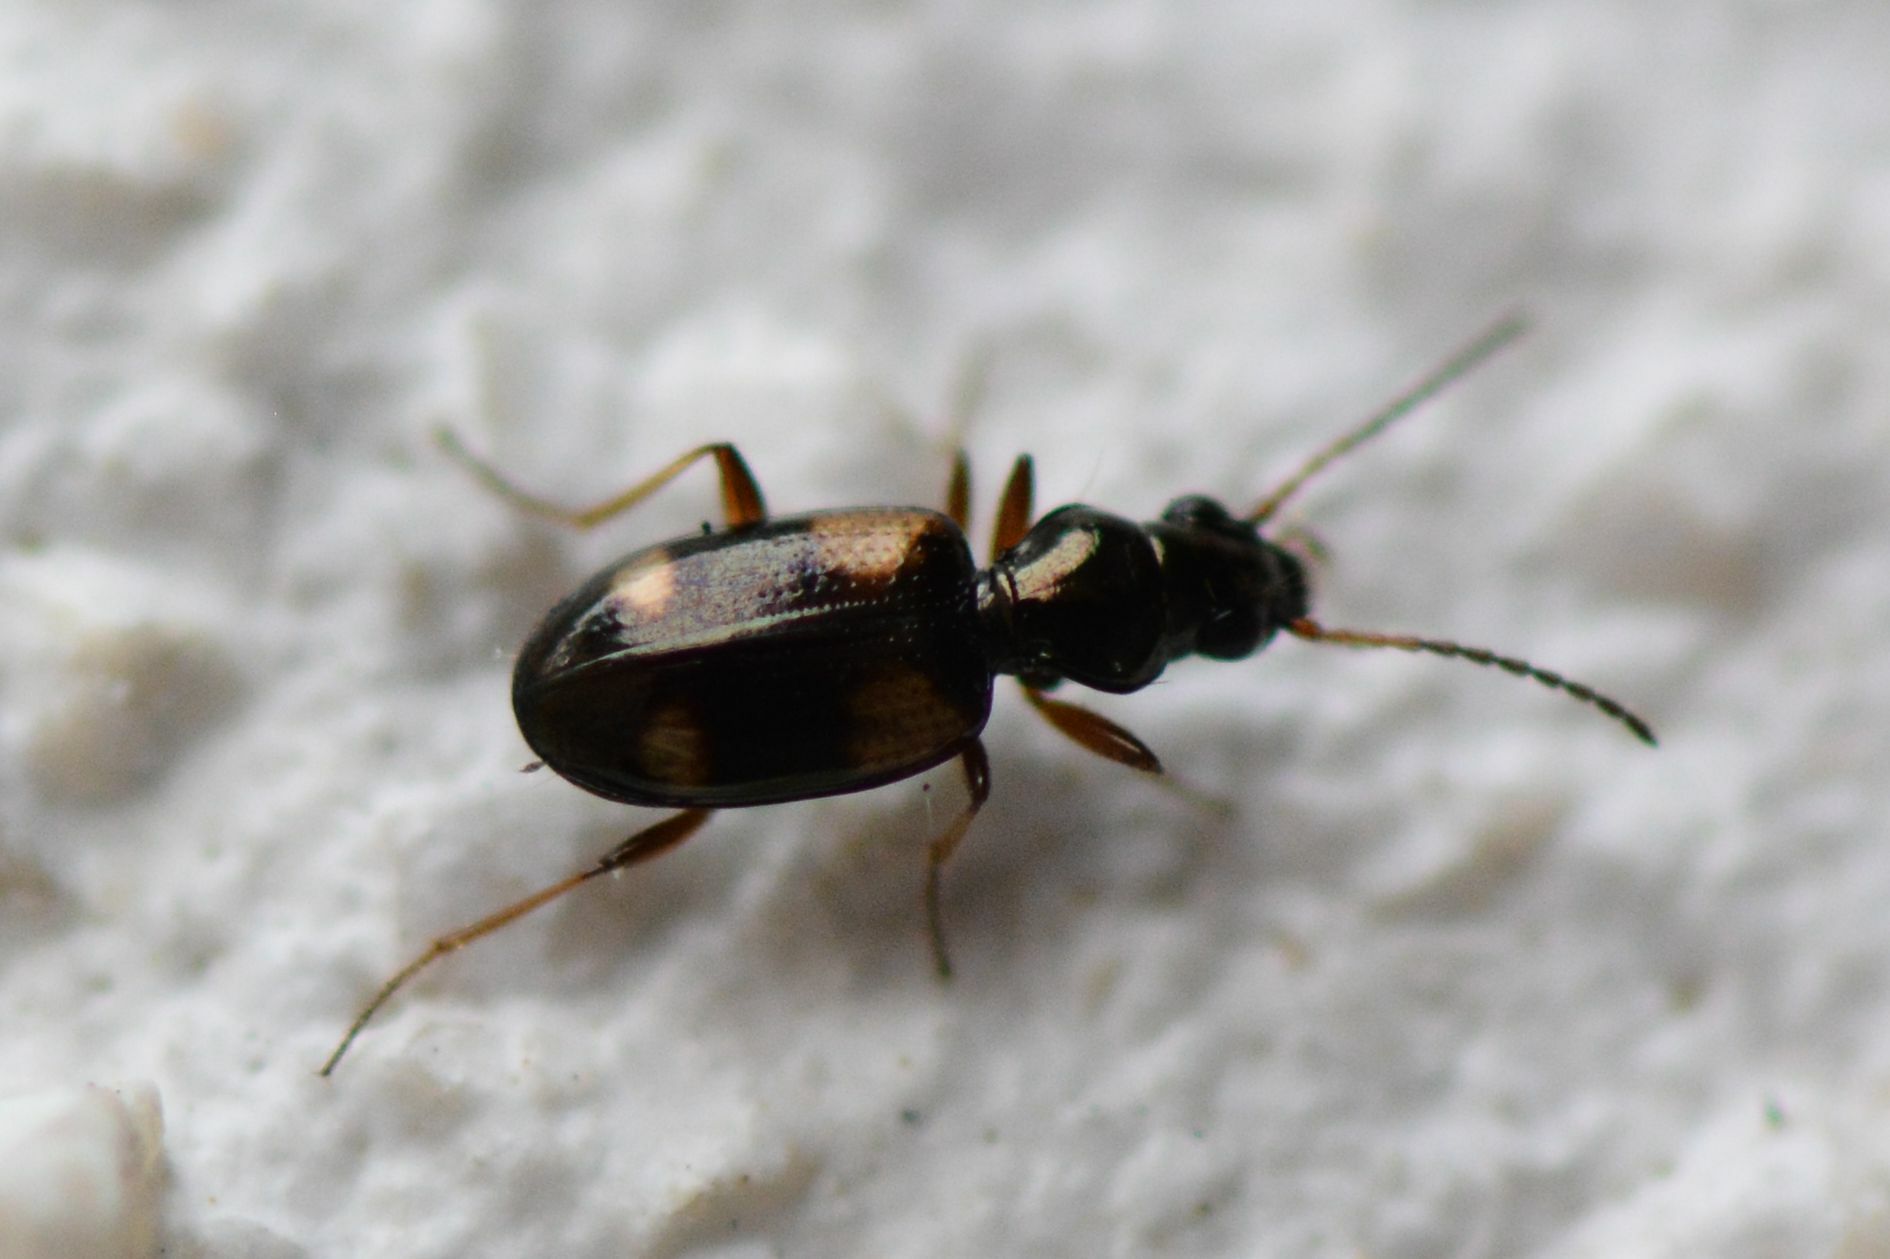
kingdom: Animalia
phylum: Arthropoda
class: Insecta
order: Coleoptera
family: Carabidae
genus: Bembidion
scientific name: Bembidion quadrimaculatum
